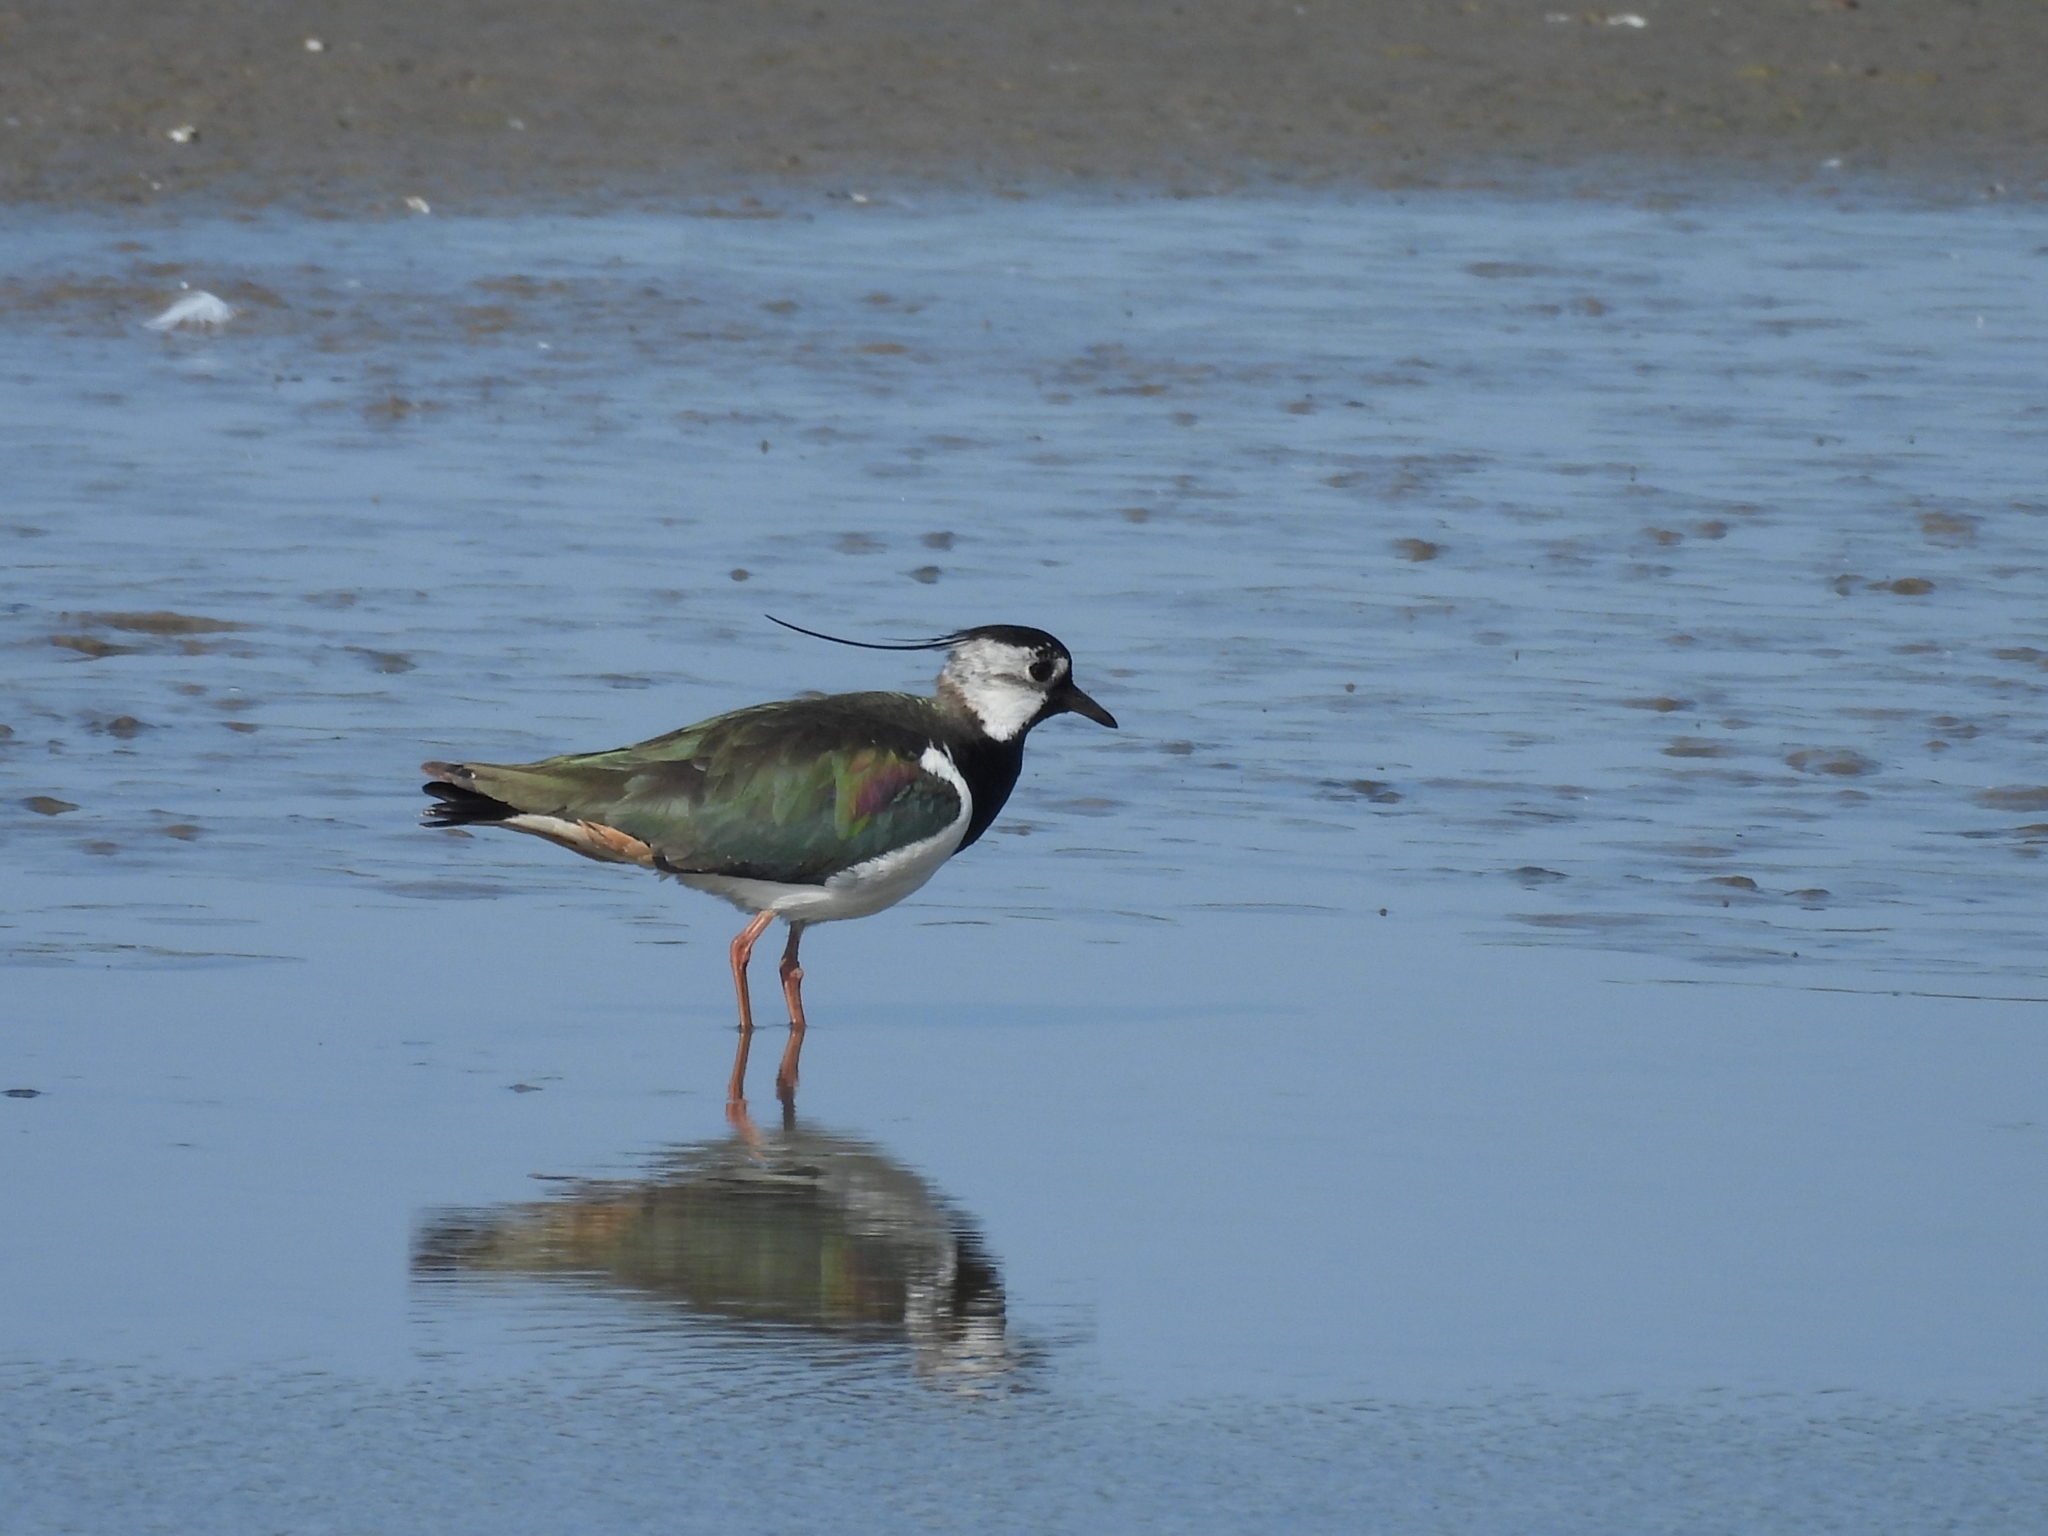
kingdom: Animalia
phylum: Chordata
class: Aves
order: Charadriiformes
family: Charadriidae
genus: Vanellus
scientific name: Vanellus vanellus
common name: Northern lapwing
